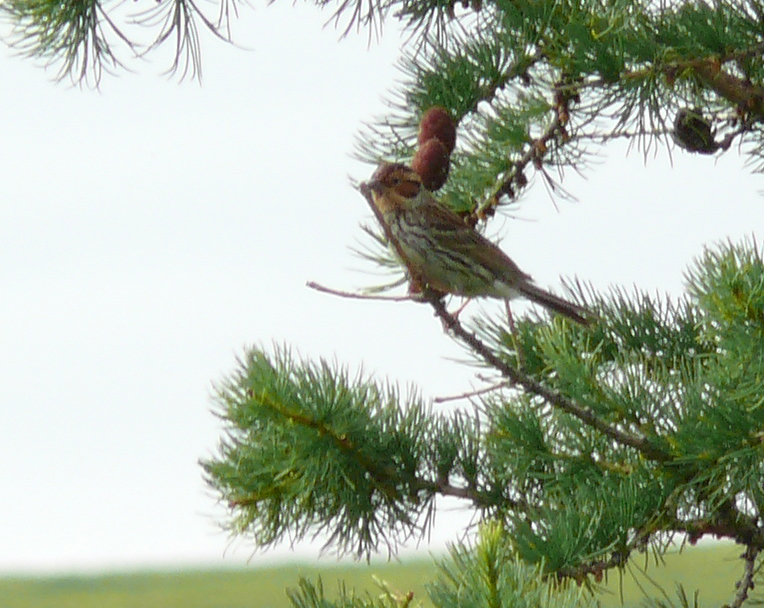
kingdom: Animalia
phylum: Chordata
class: Aves
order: Passeriformes
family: Emberizidae
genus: Emberiza
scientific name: Emberiza pusilla
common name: Little bunting
